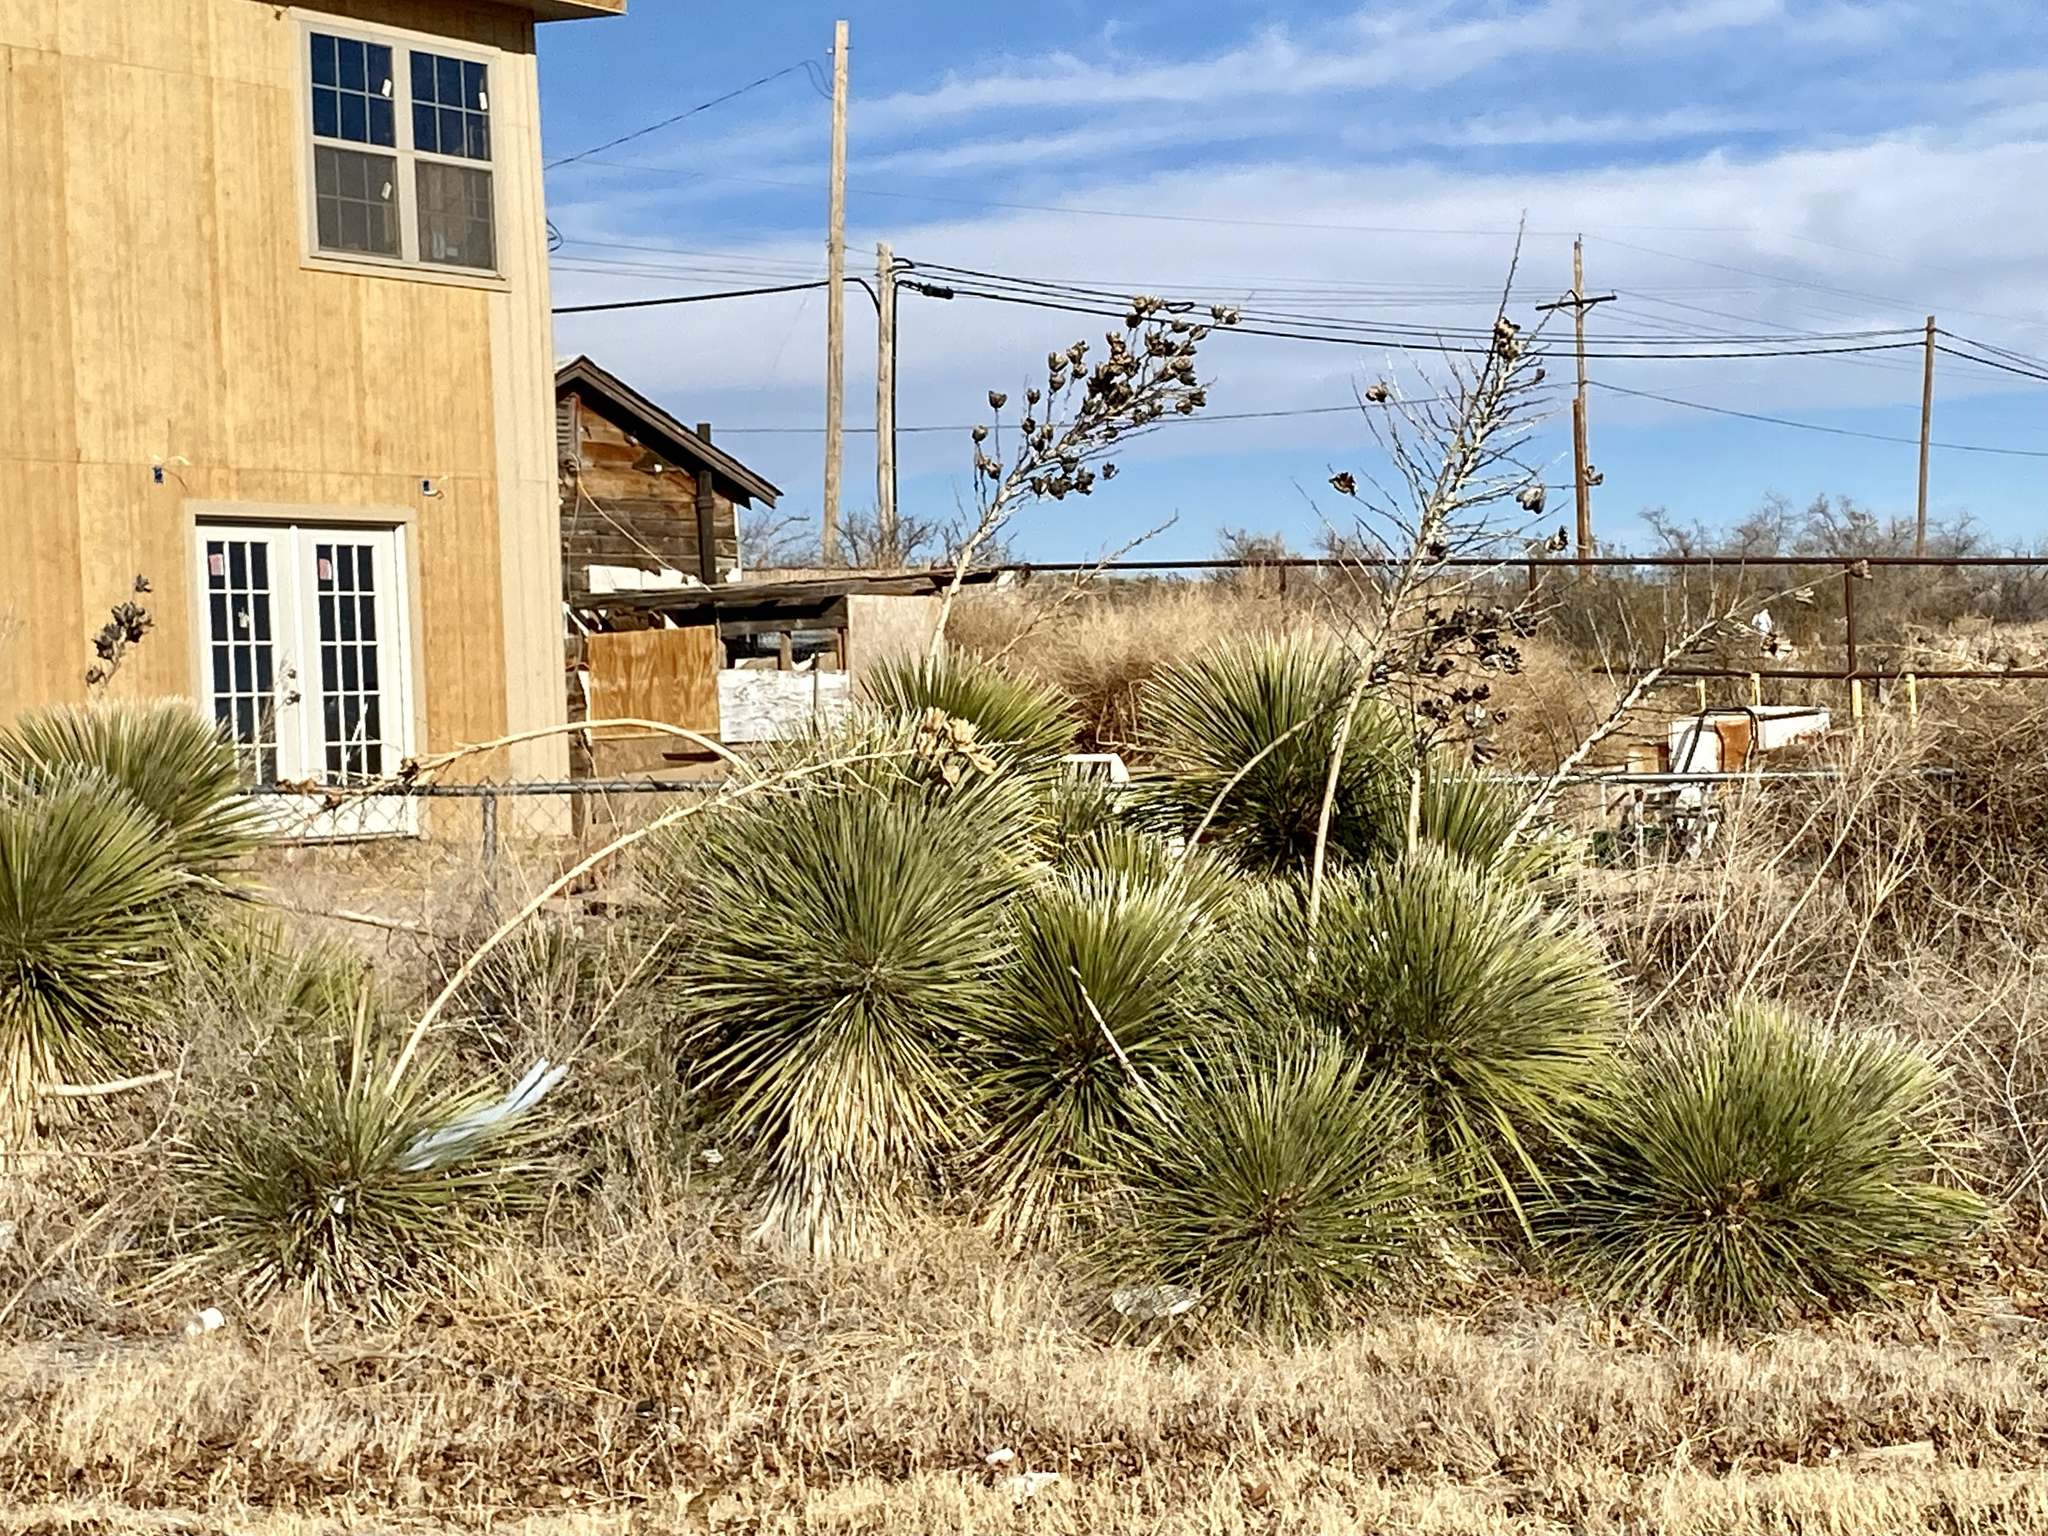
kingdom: Plantae
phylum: Tracheophyta
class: Liliopsida
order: Asparagales
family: Asparagaceae
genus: Yucca
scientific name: Yucca elata
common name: Palmella
